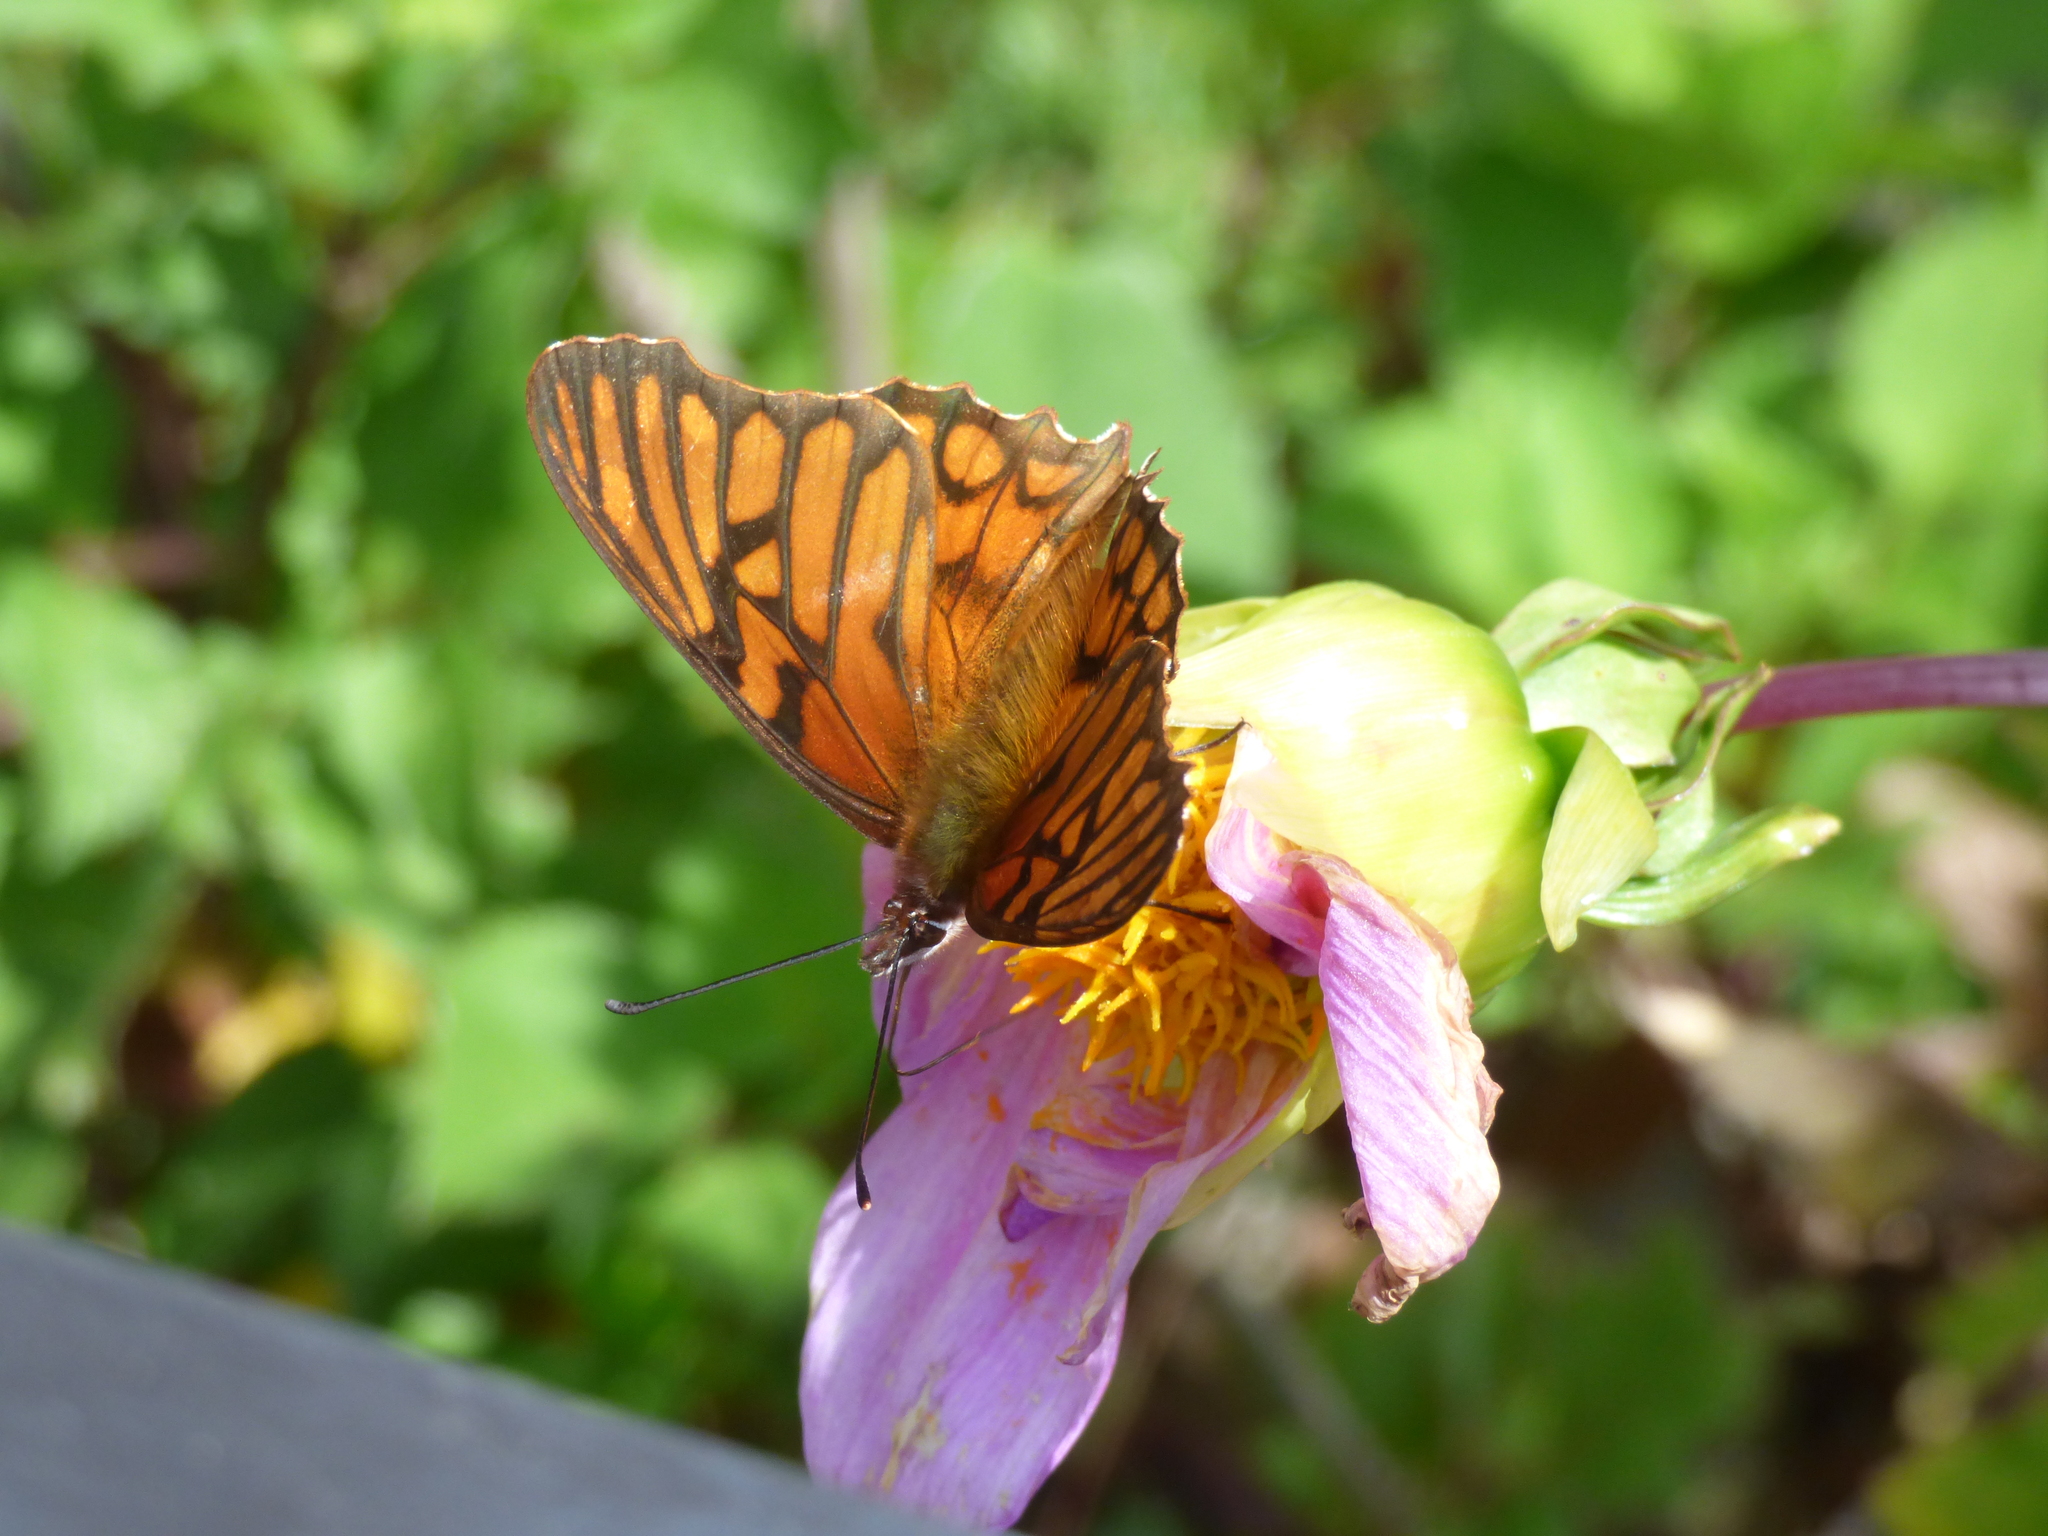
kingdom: Animalia
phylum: Arthropoda
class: Insecta
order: Lepidoptera
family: Nymphalidae
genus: Dione
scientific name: Dione glycera
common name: Andean silverspot
